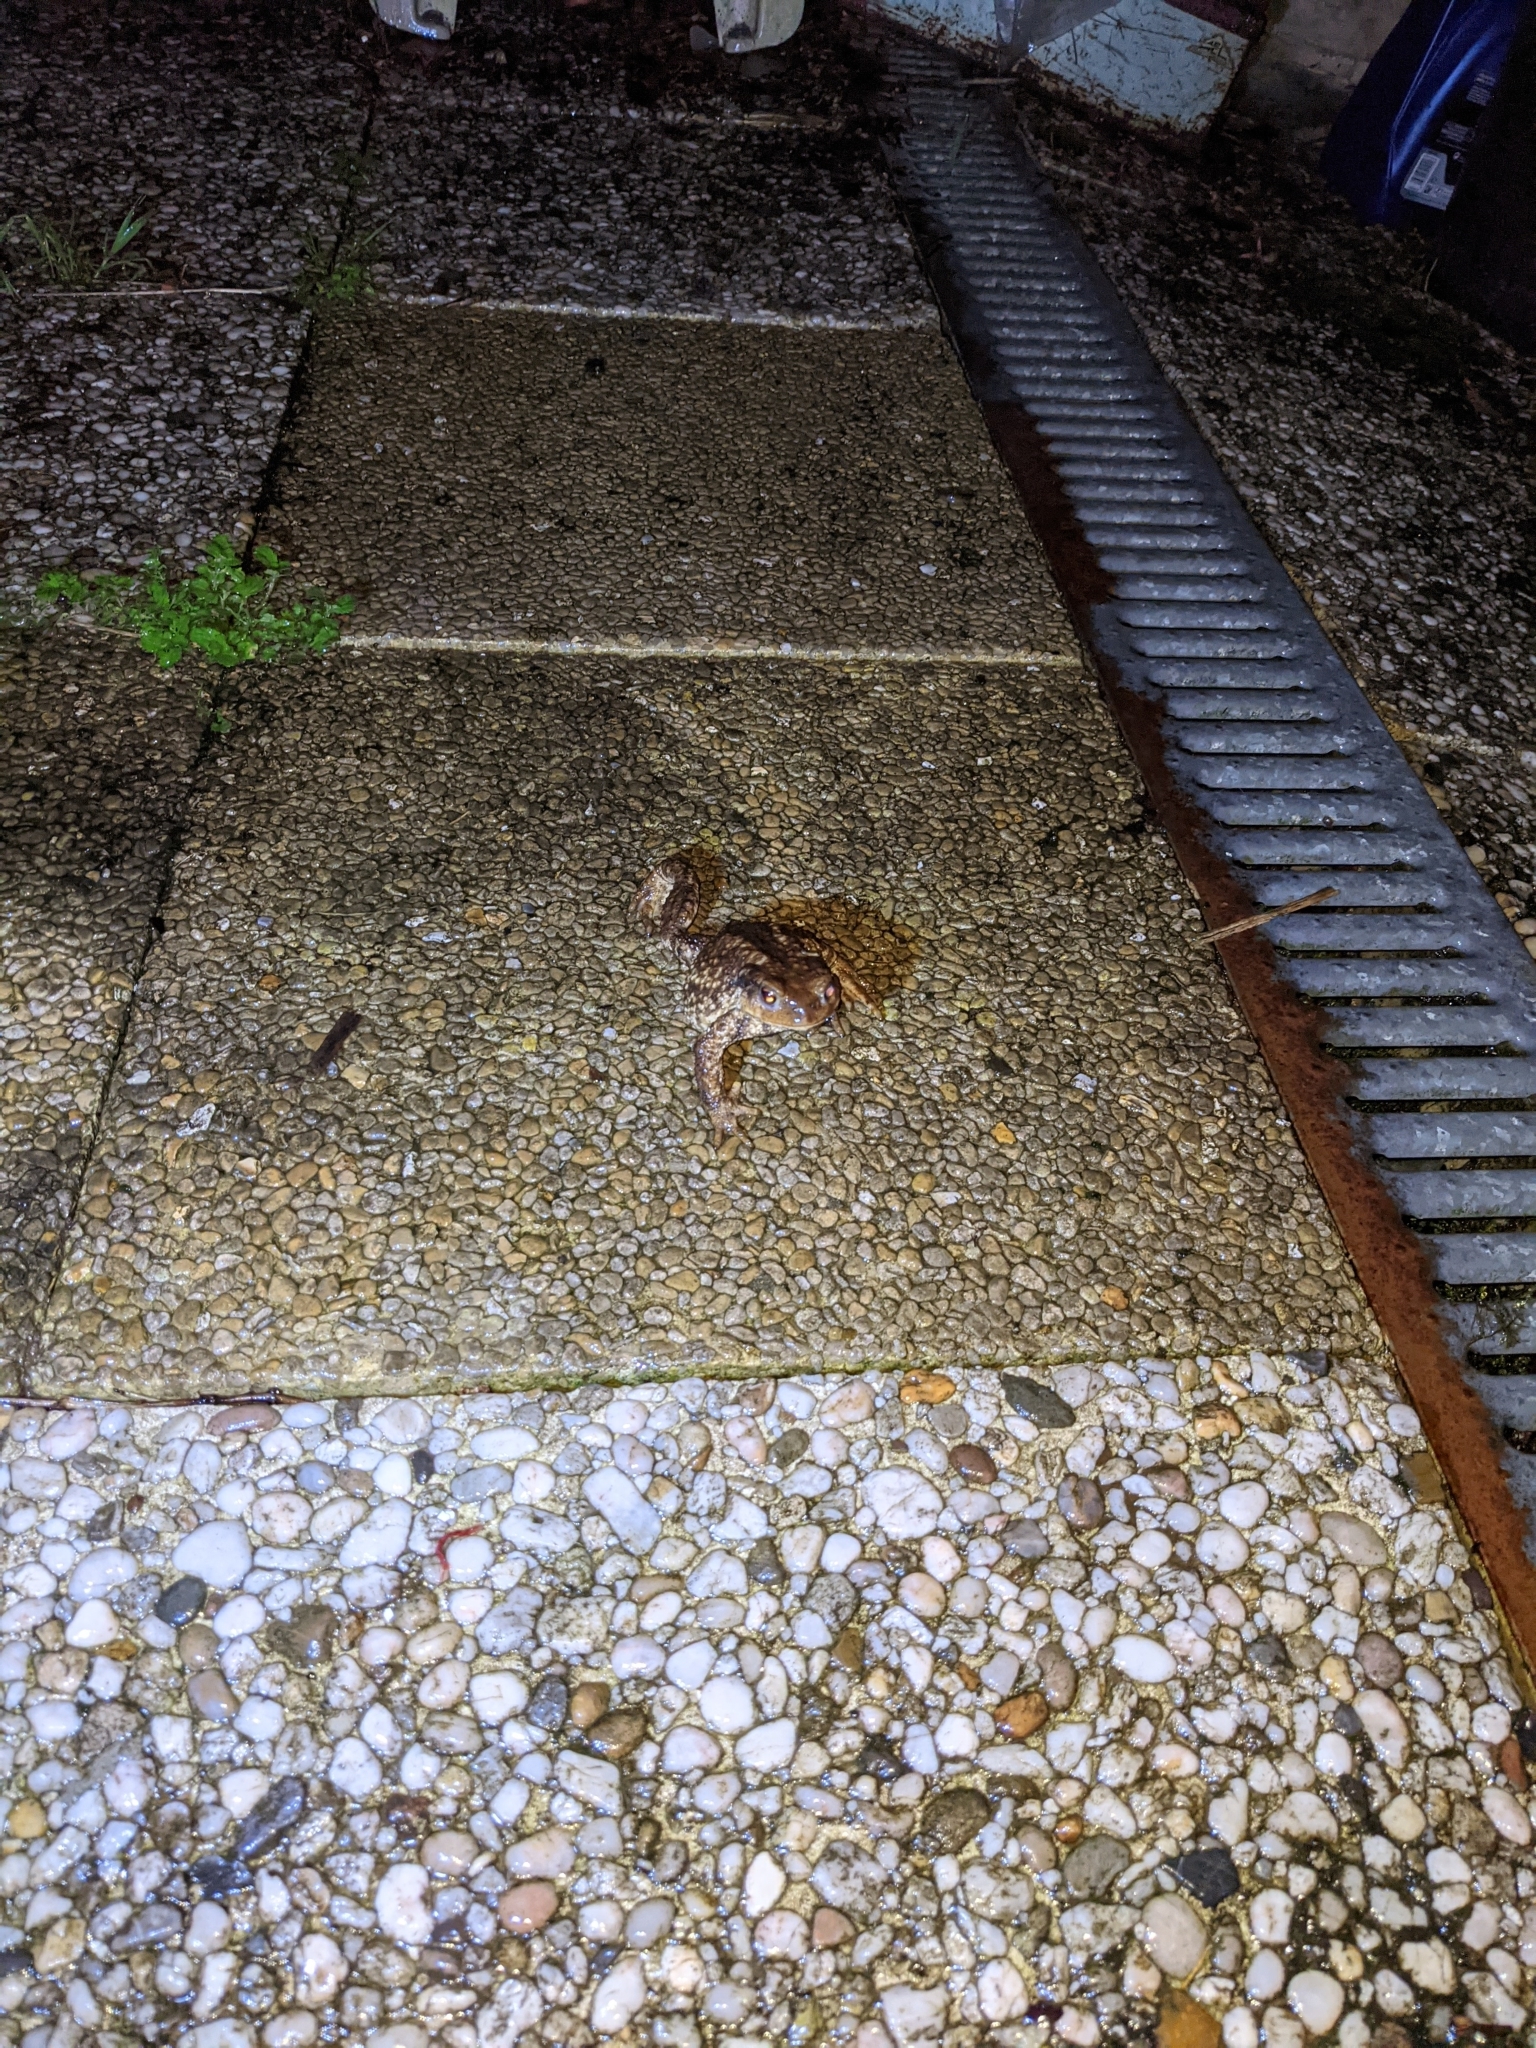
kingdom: Animalia
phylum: Chordata
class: Amphibia
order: Anura
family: Bufonidae
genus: Bufo
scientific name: Bufo spinosus
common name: Western common toad
